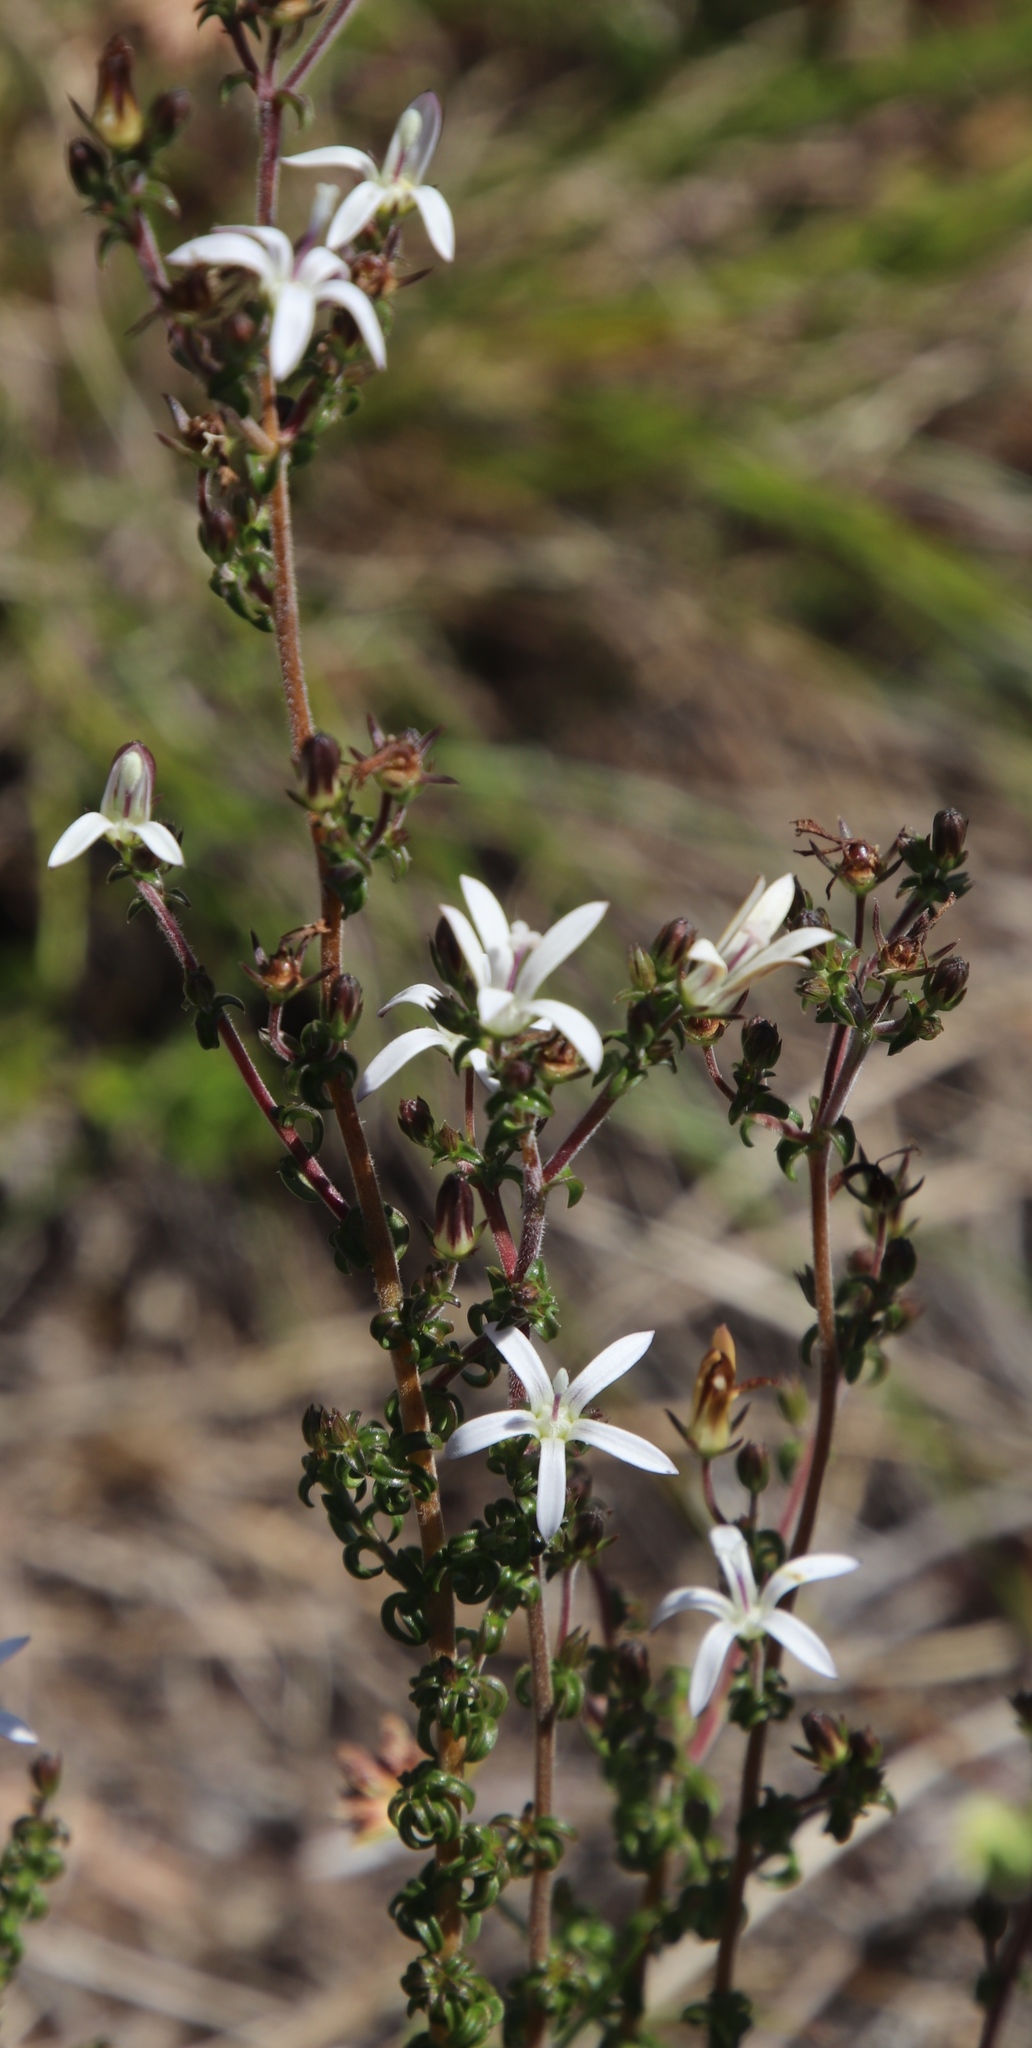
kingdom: Plantae
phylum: Tracheophyta
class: Magnoliopsida
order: Asterales
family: Campanulaceae
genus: Wahlenbergia
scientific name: Wahlenbergia tenella
